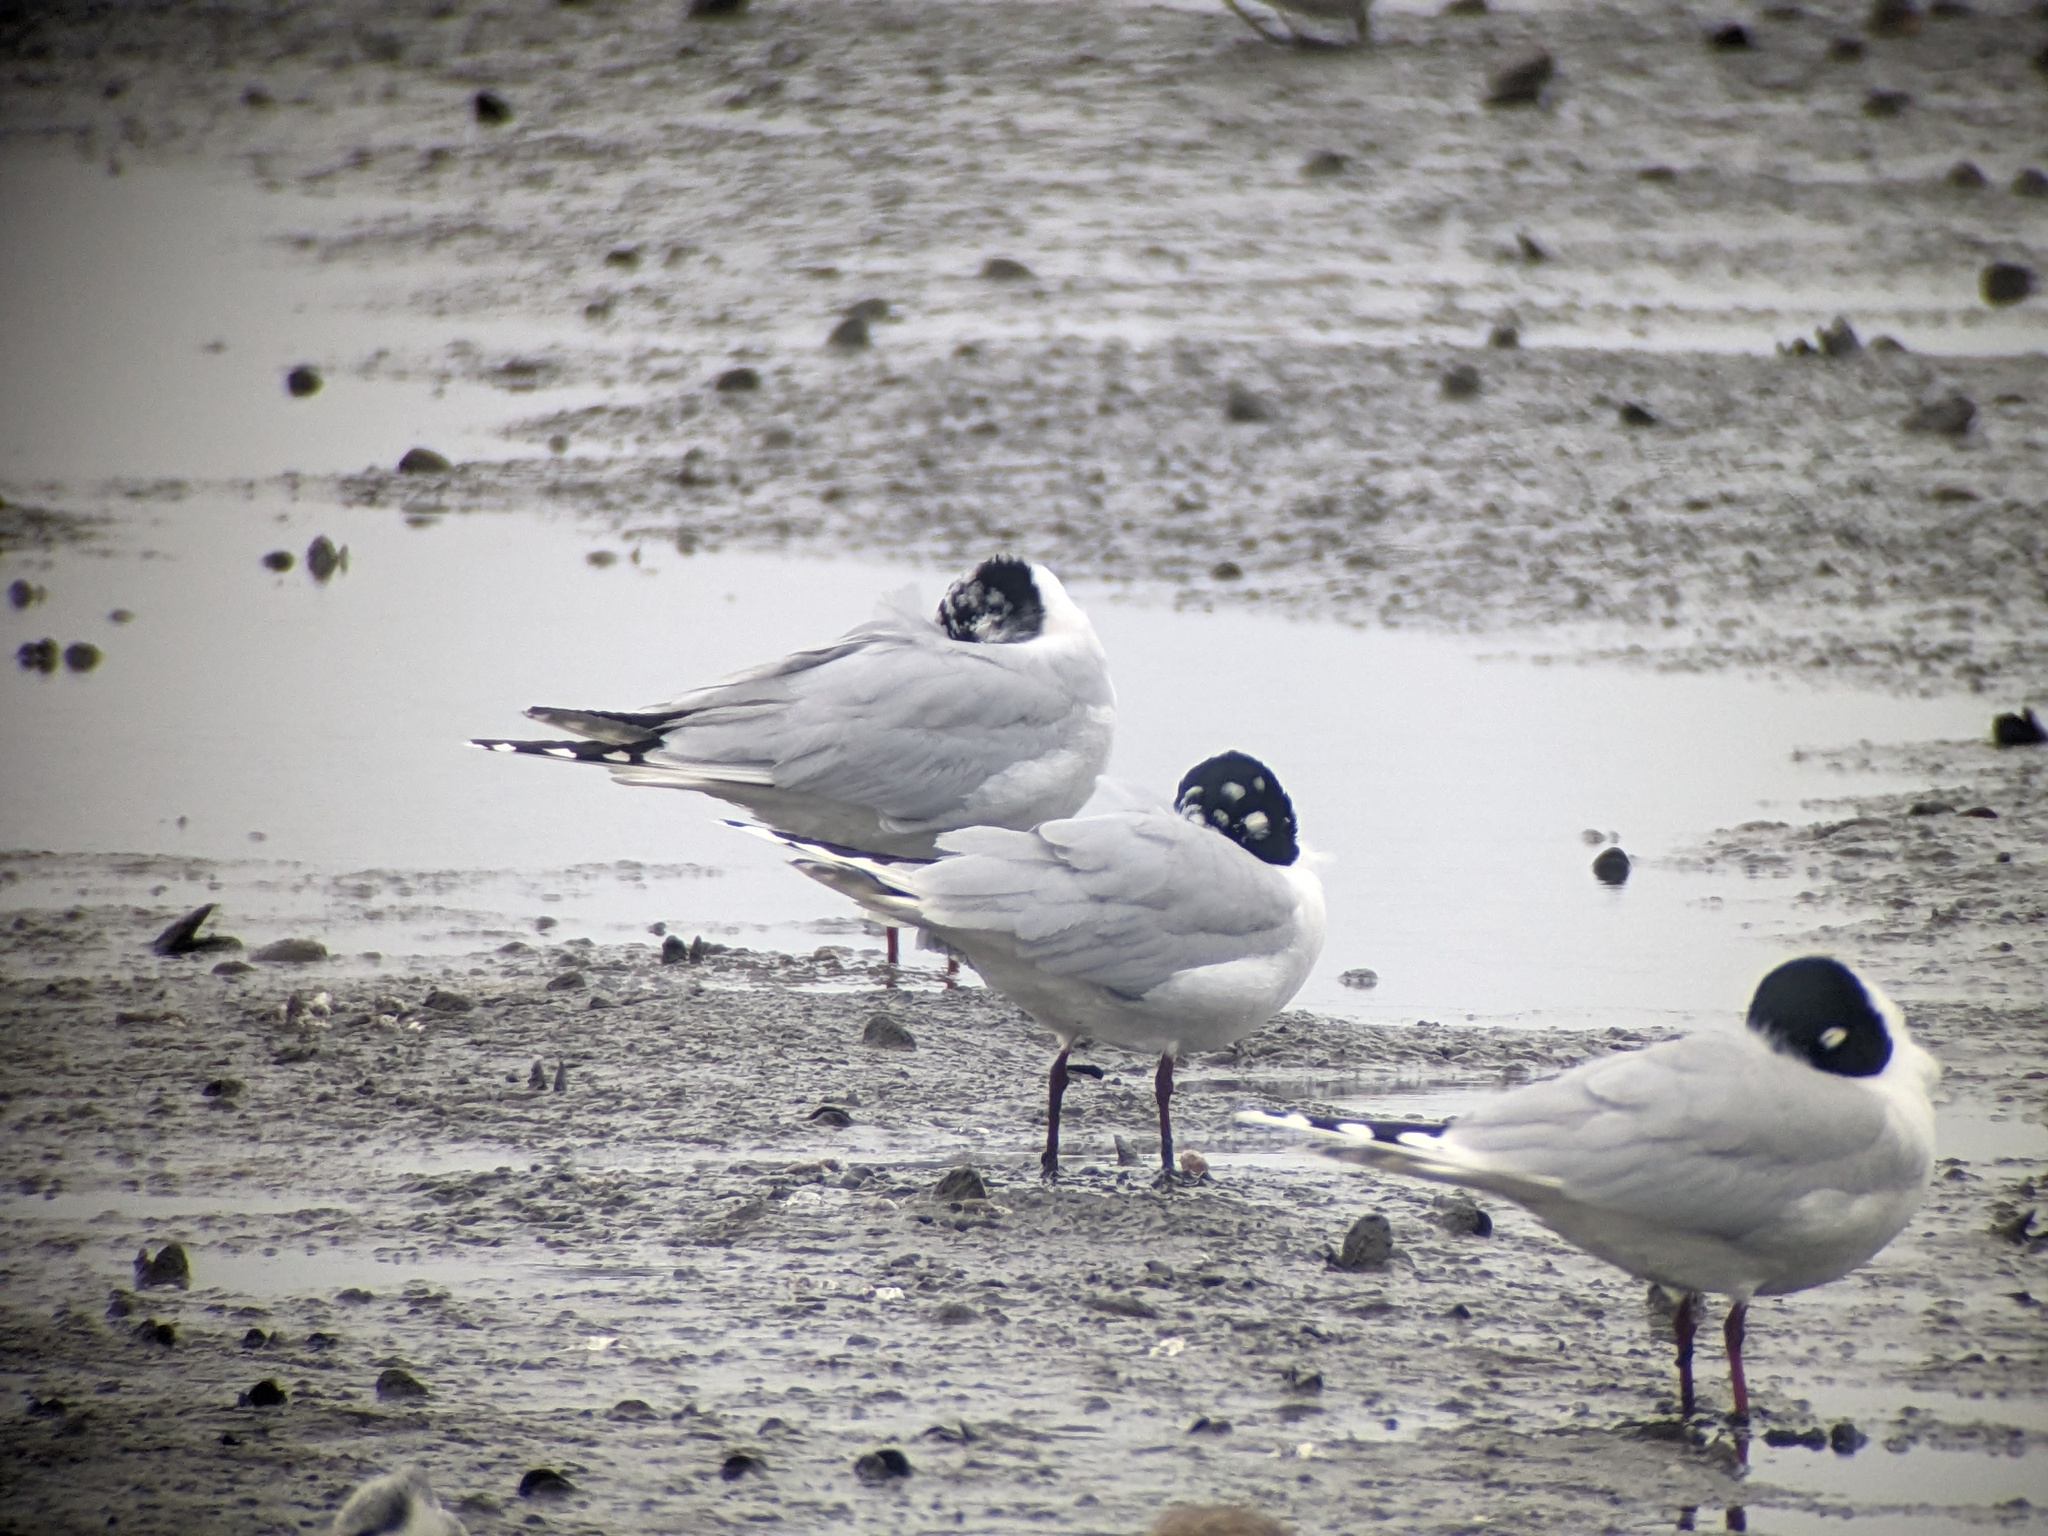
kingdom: Animalia
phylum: Chordata
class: Aves
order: Charadriiformes
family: Laridae
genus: Chroicocephalus
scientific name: Chroicocephalus saundersi
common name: Saunders's gull
